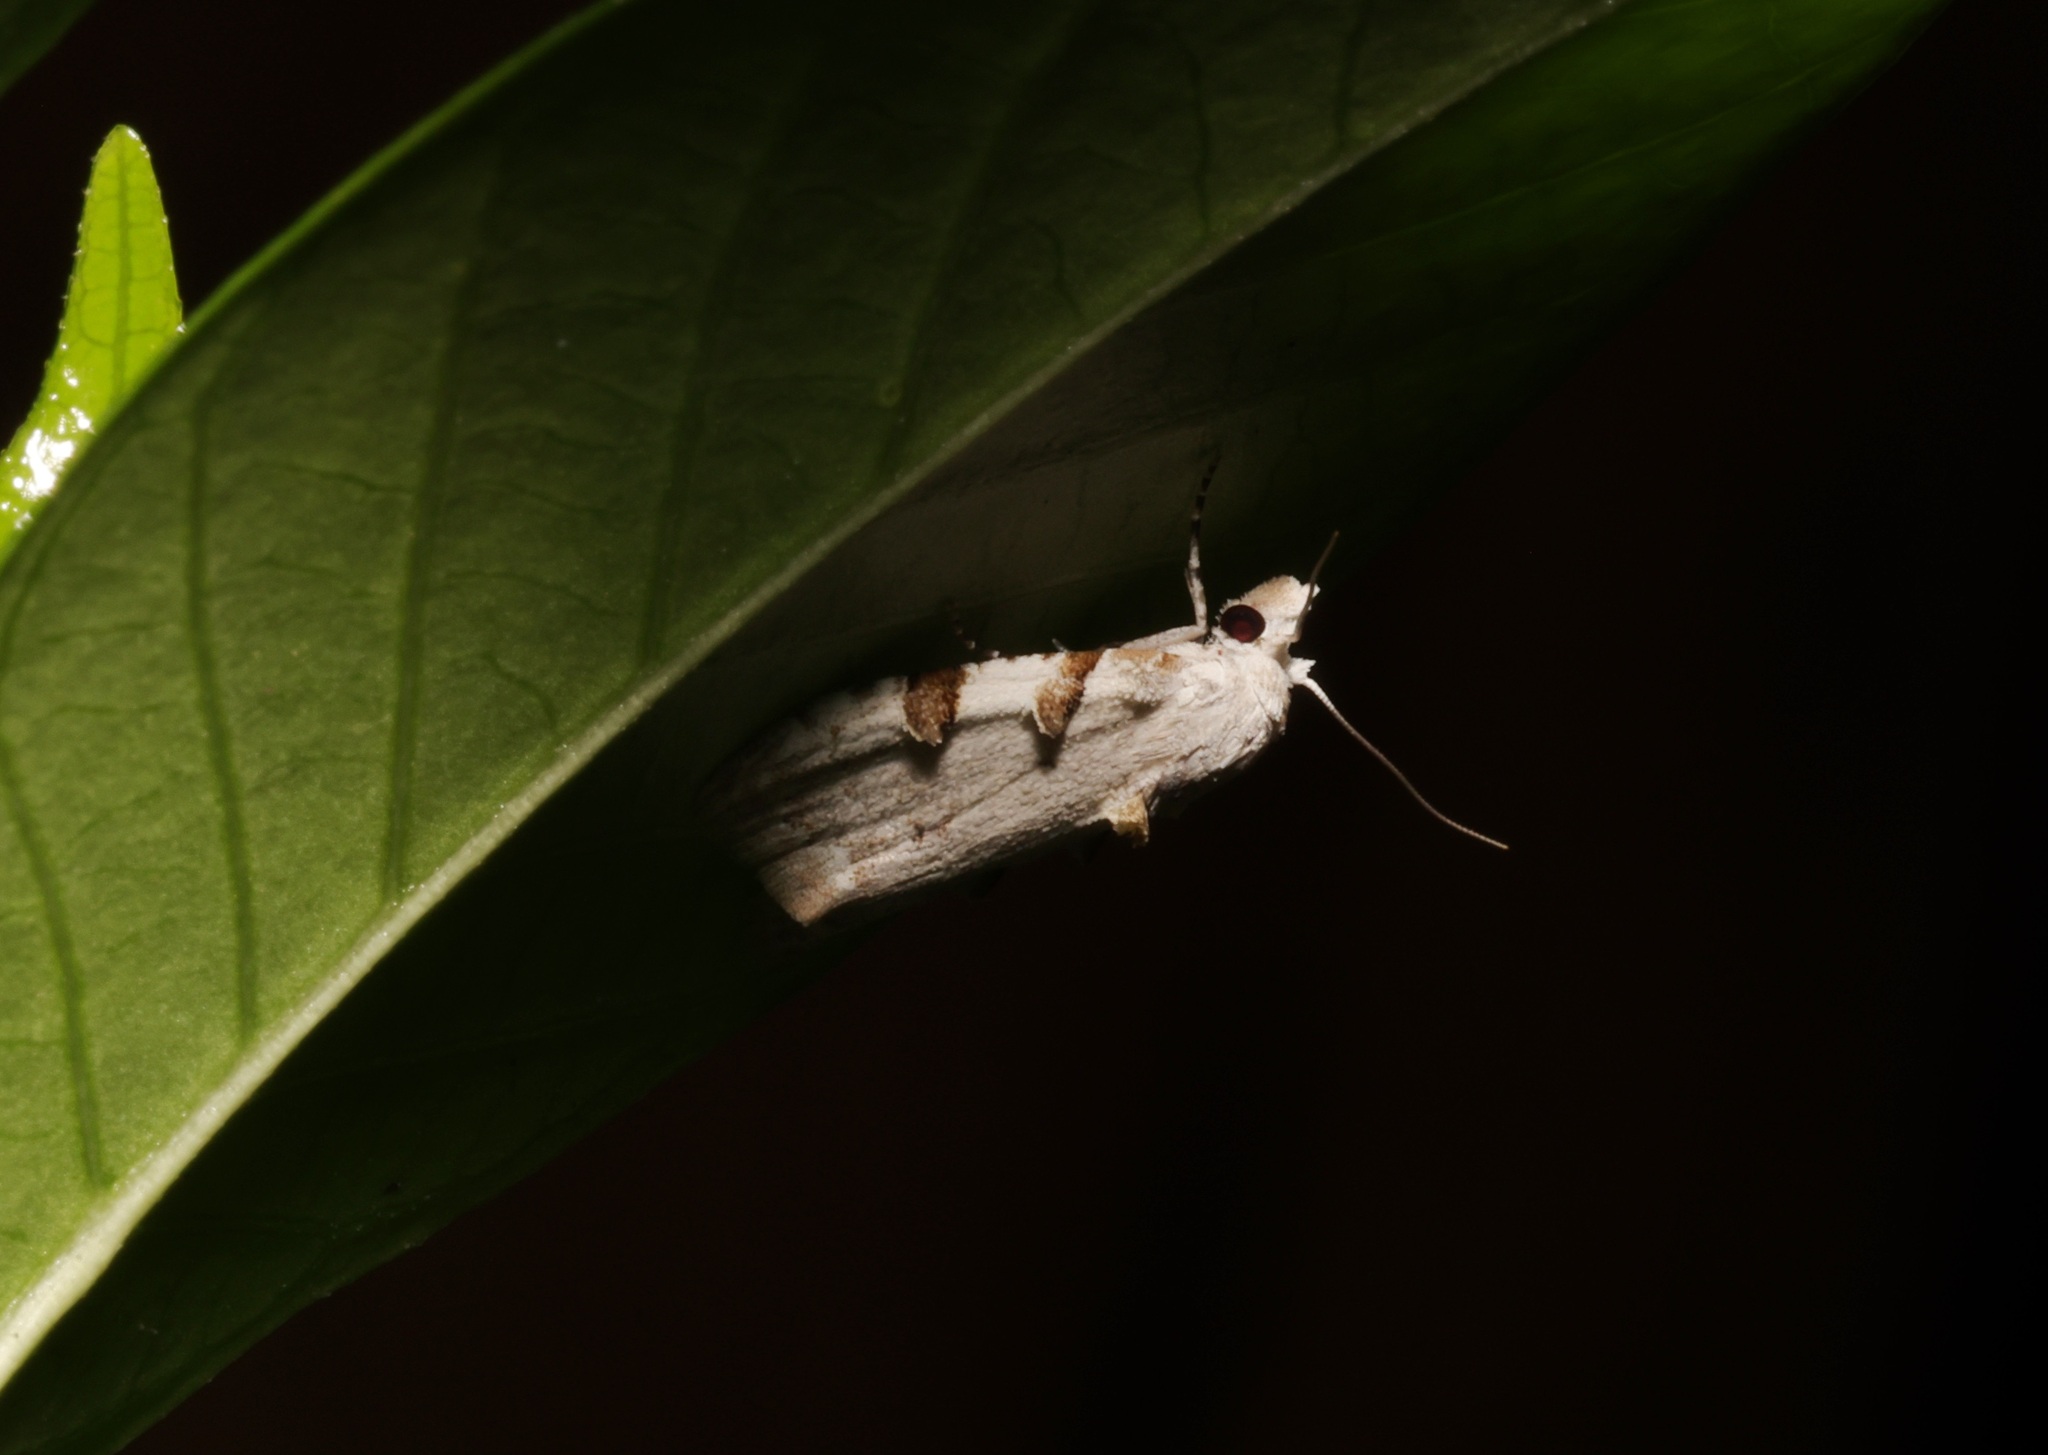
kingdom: Animalia
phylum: Arthropoda
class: Insecta
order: Lepidoptera
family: Nolidae
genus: Nola
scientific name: Nola pascua
